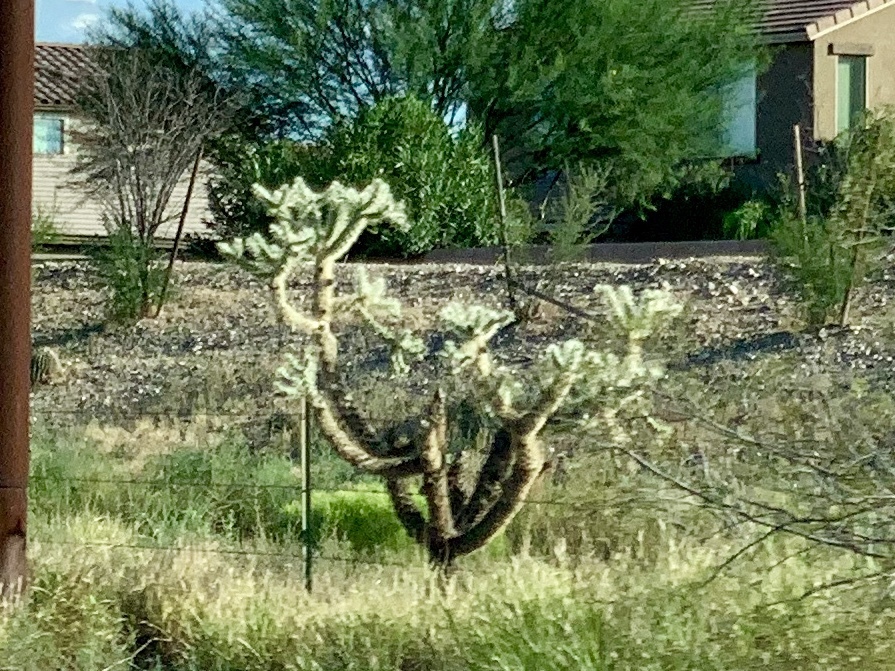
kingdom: Plantae
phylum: Tracheophyta
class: Magnoliopsida
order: Caryophyllales
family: Cactaceae
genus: Cylindropuntia
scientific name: Cylindropuntia fulgida
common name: Jumping cholla
